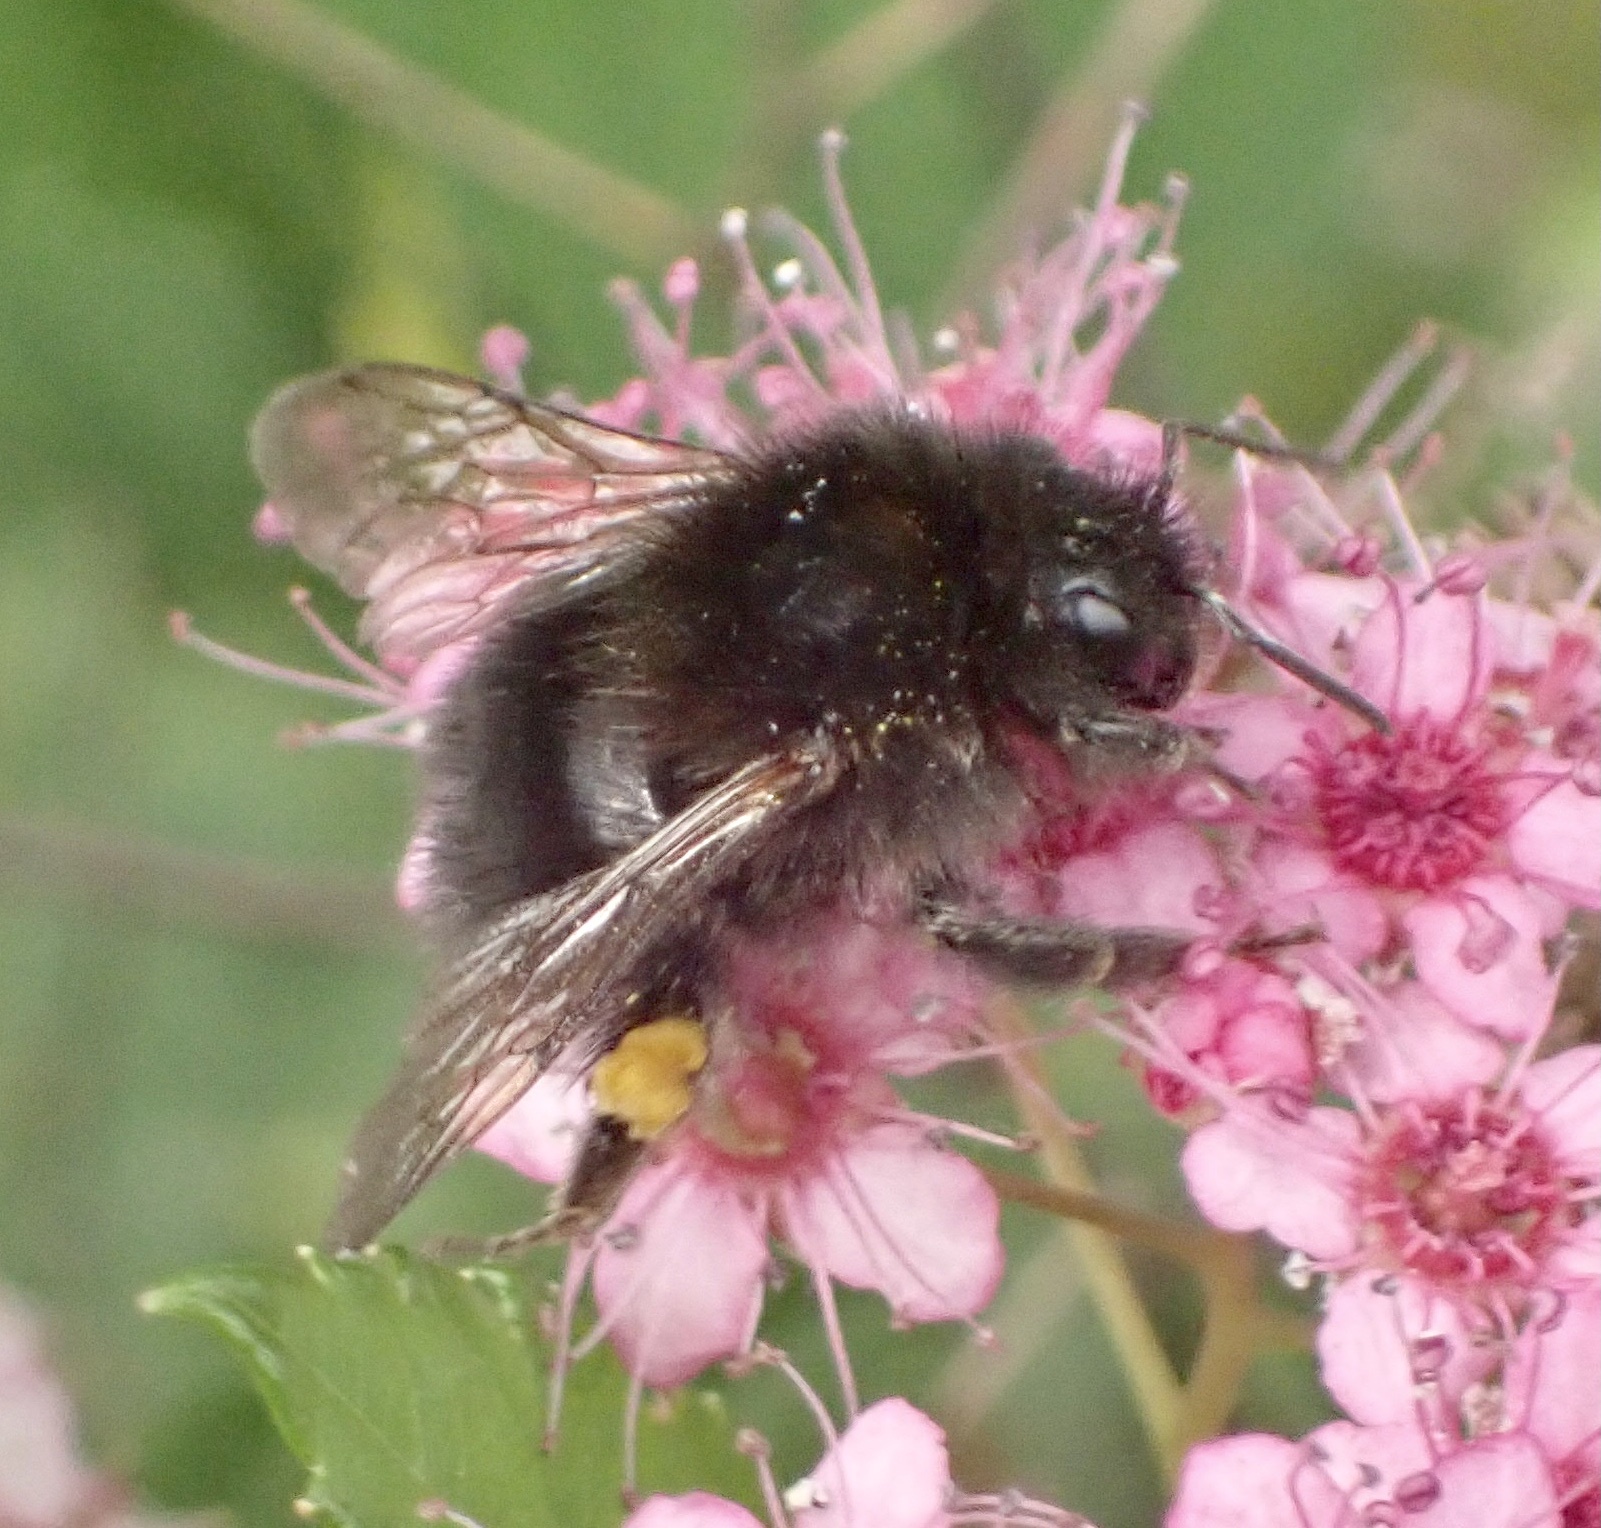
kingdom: Animalia
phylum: Arthropoda
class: Insecta
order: Hymenoptera
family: Apidae
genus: Bombus
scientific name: Bombus hypnorum
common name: New garden bumblebee
